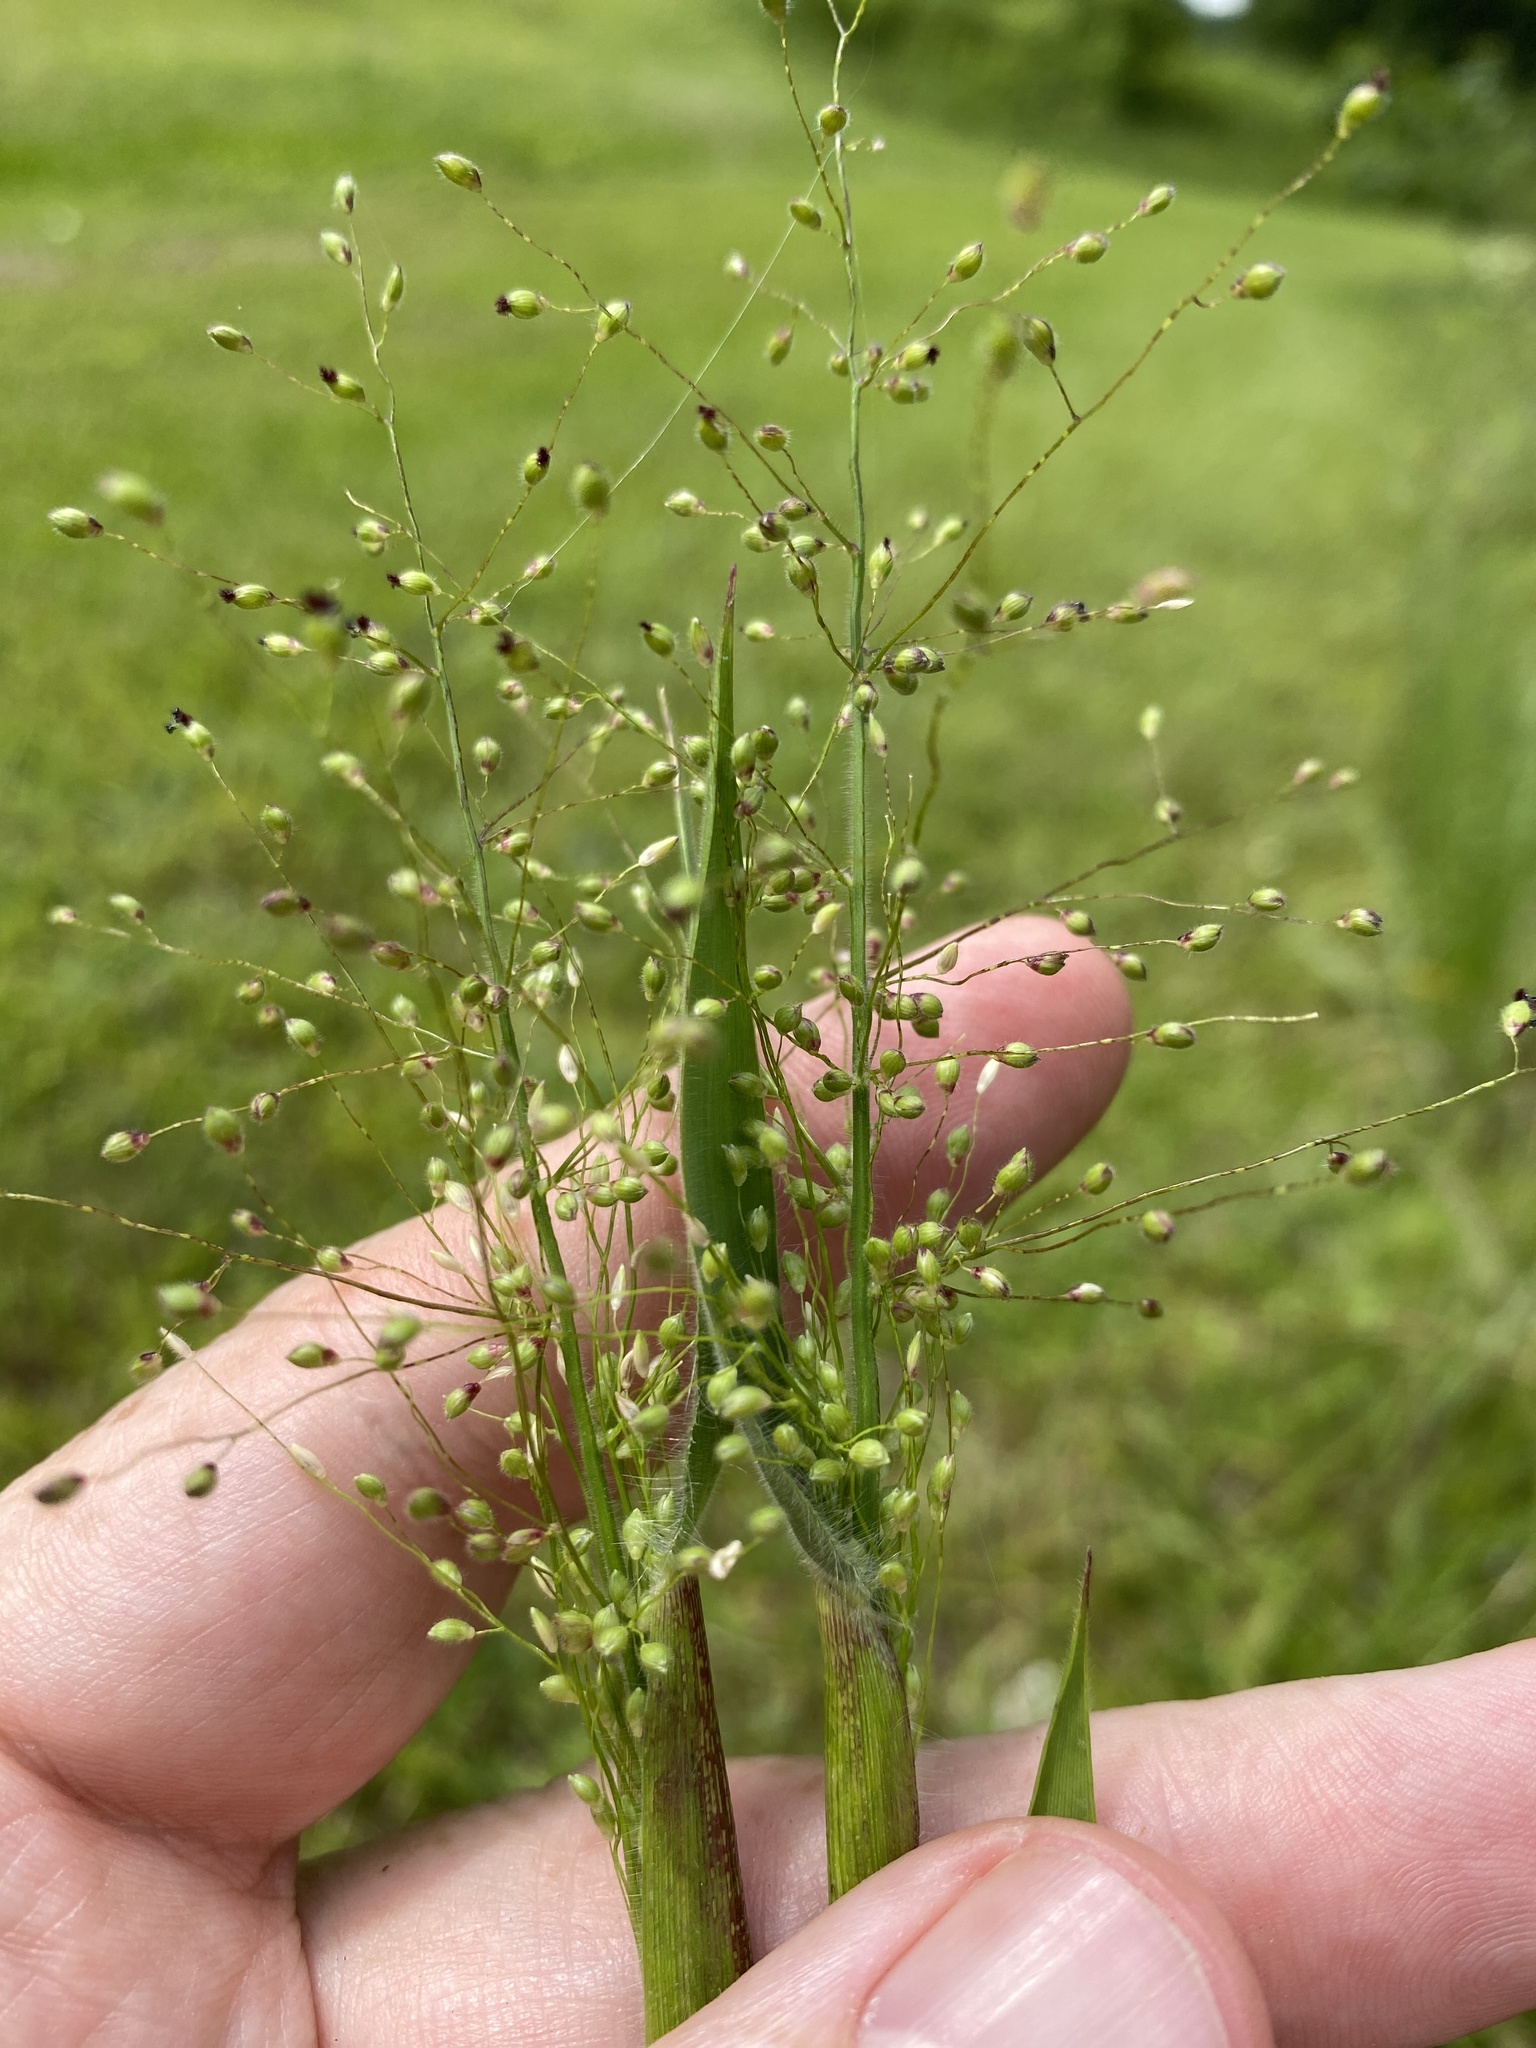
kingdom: Plantae
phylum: Tracheophyta
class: Liliopsida
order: Poales
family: Poaceae
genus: Dichanthelium
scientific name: Dichanthelium scoparium
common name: Velvety panic grass
